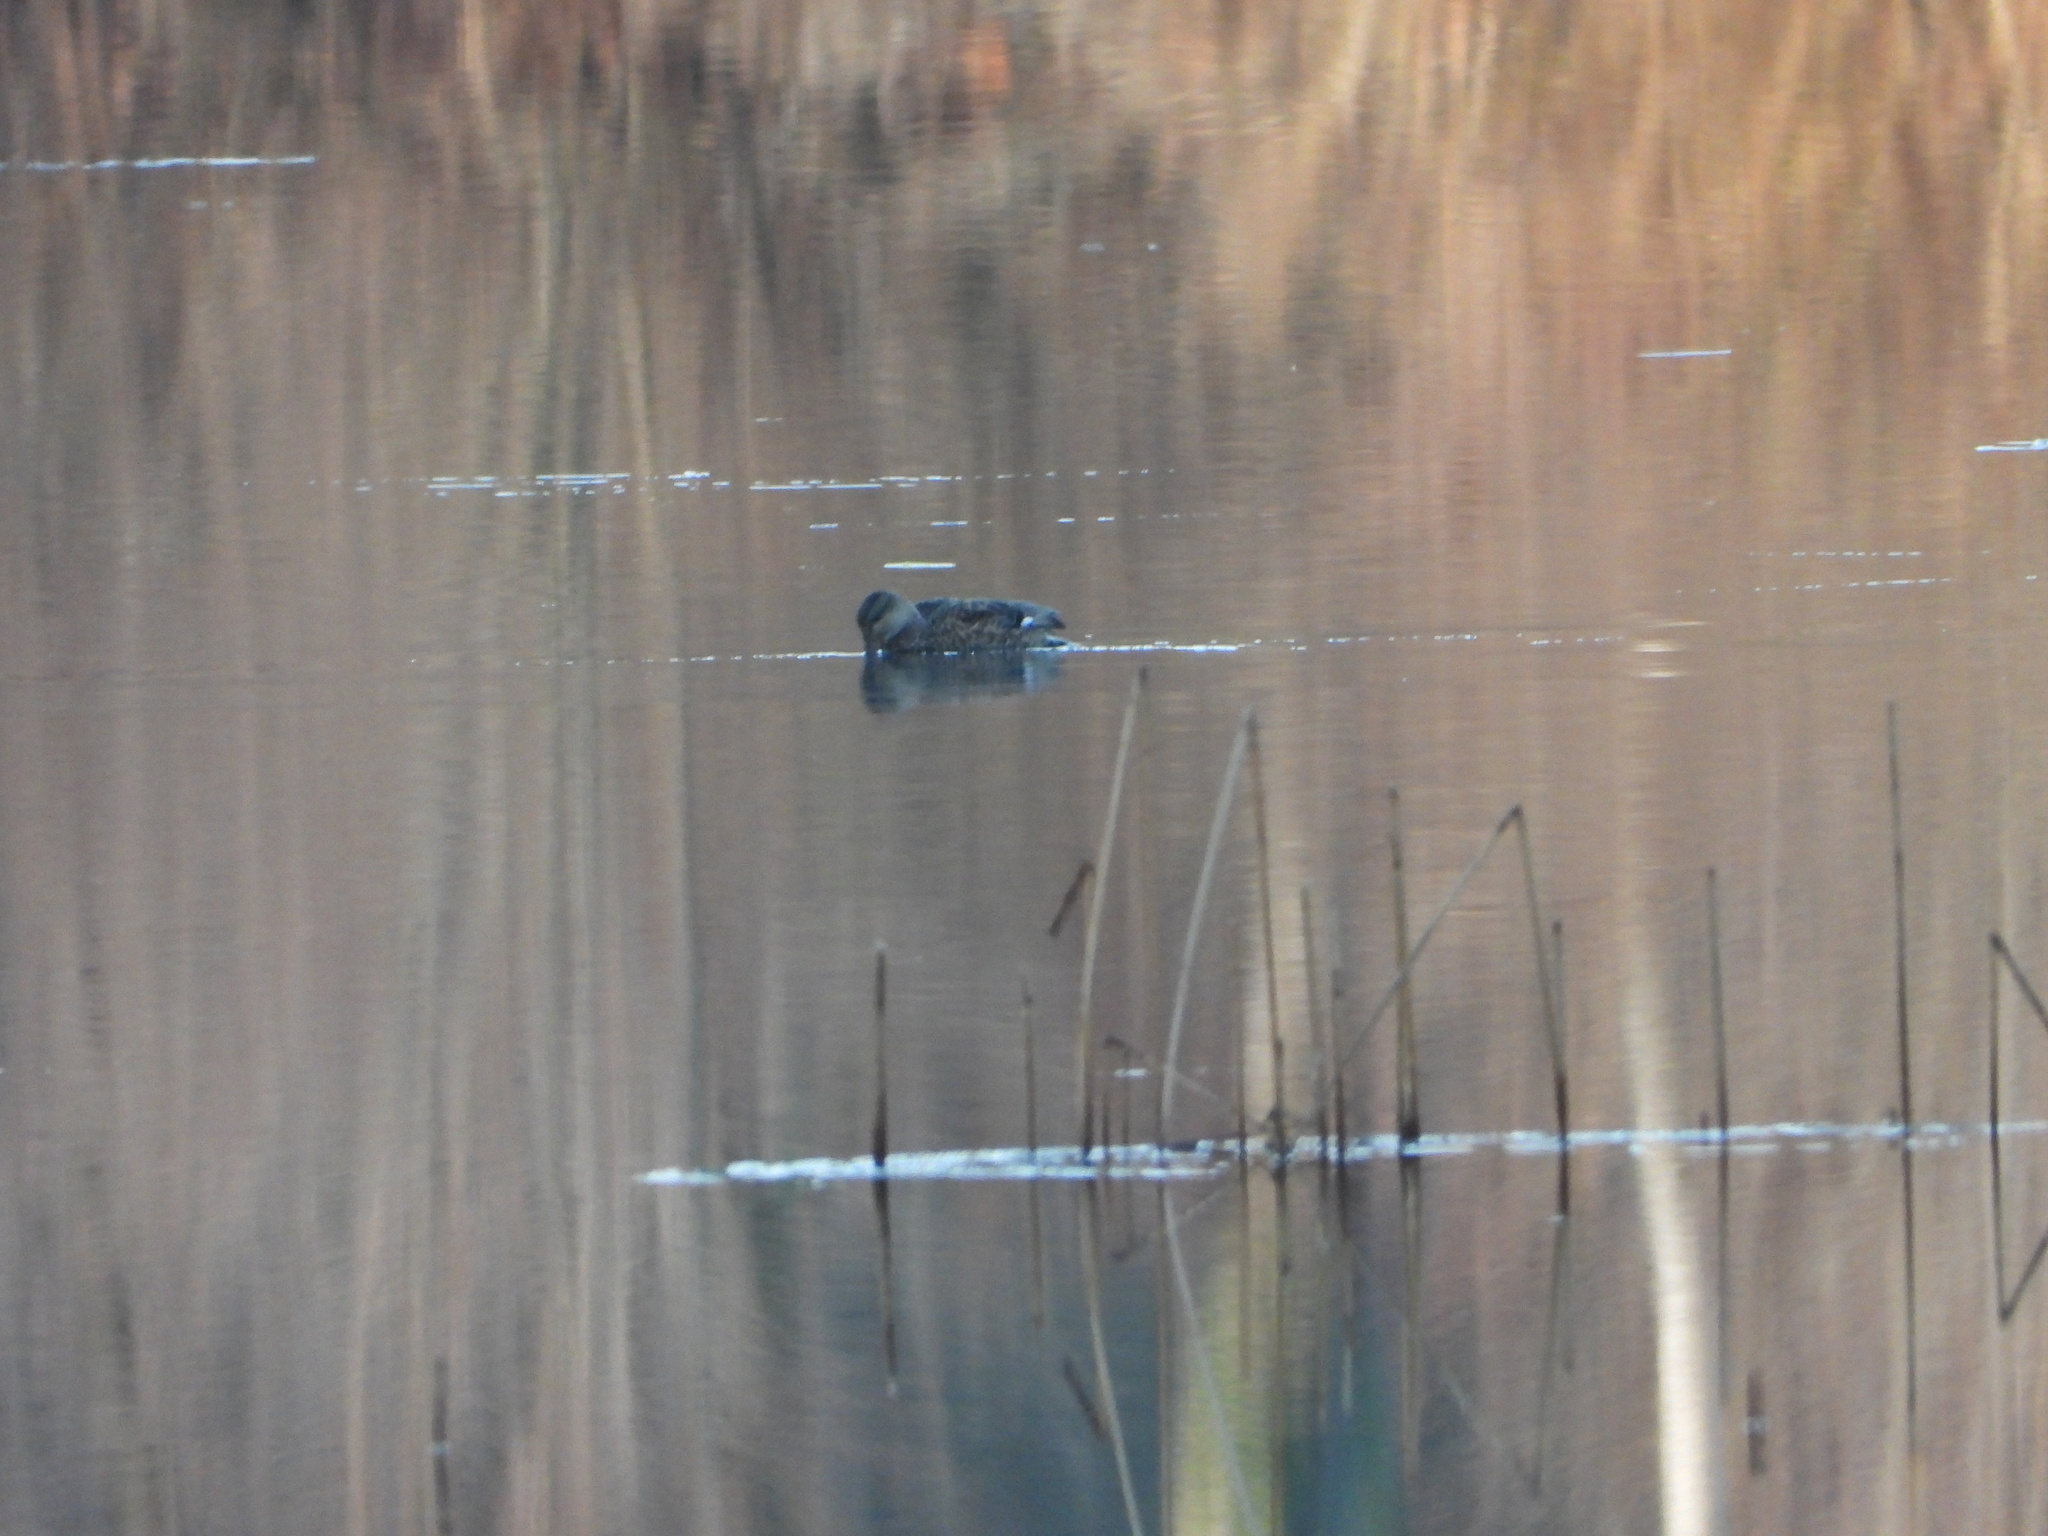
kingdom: Animalia
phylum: Chordata
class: Aves
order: Anseriformes
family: Anatidae
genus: Mareca
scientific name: Mareca strepera
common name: Gadwall
